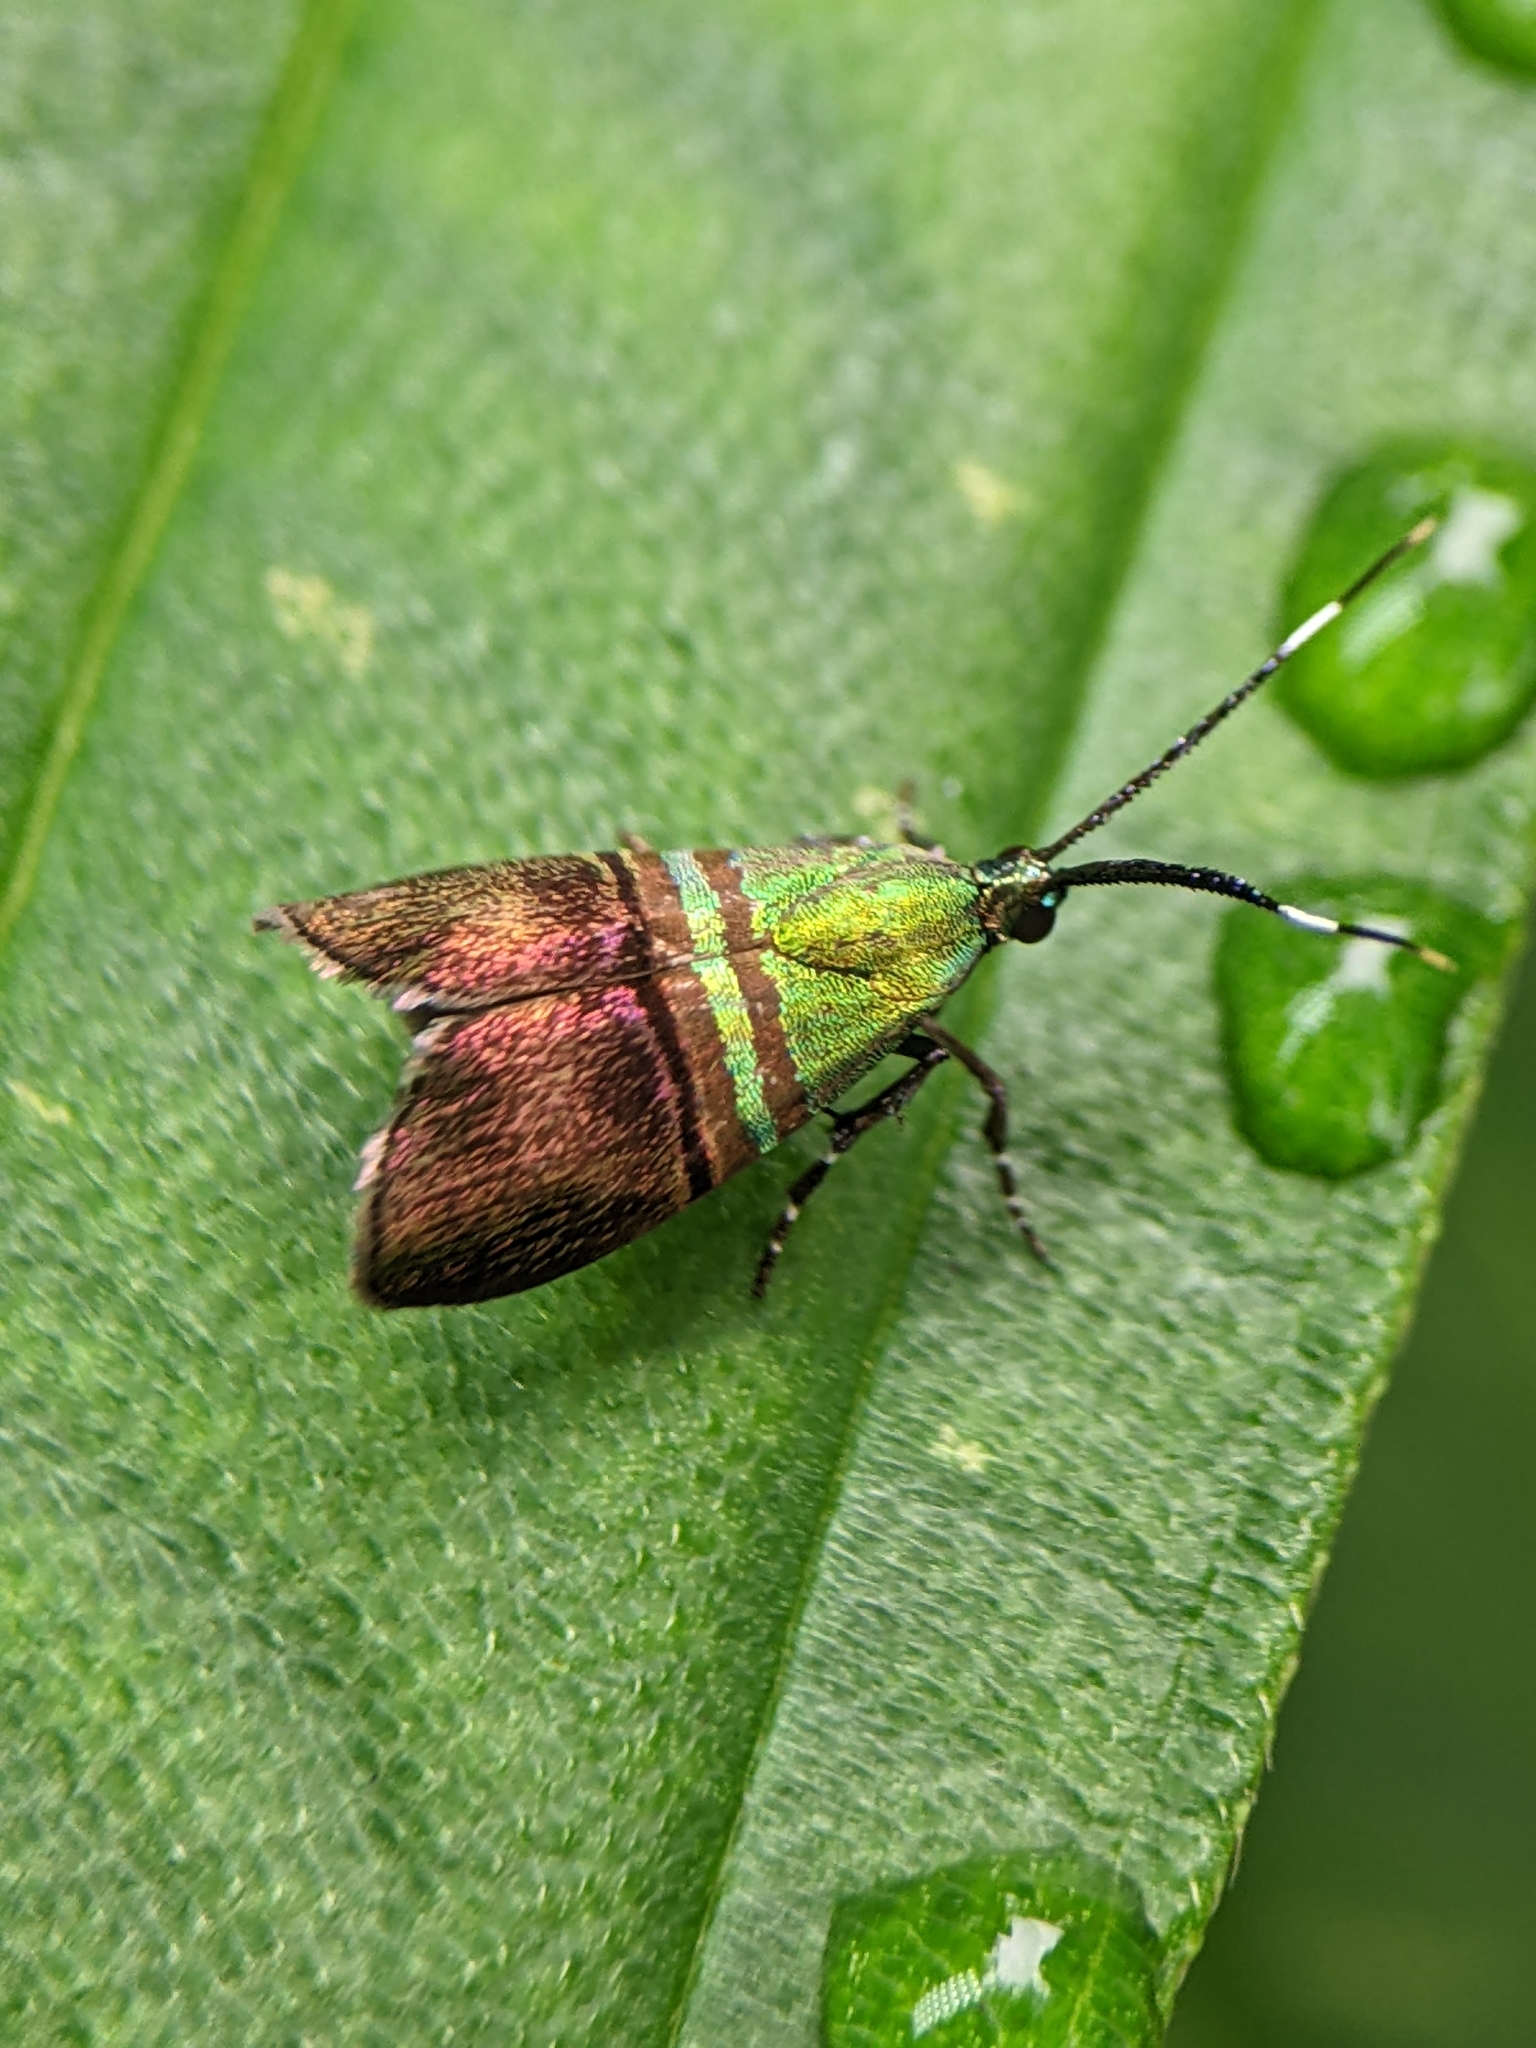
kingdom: Animalia
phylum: Arthropoda
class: Insecta
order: Lepidoptera
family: Choreutidae
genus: Saptha
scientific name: Saptha pretiosa
